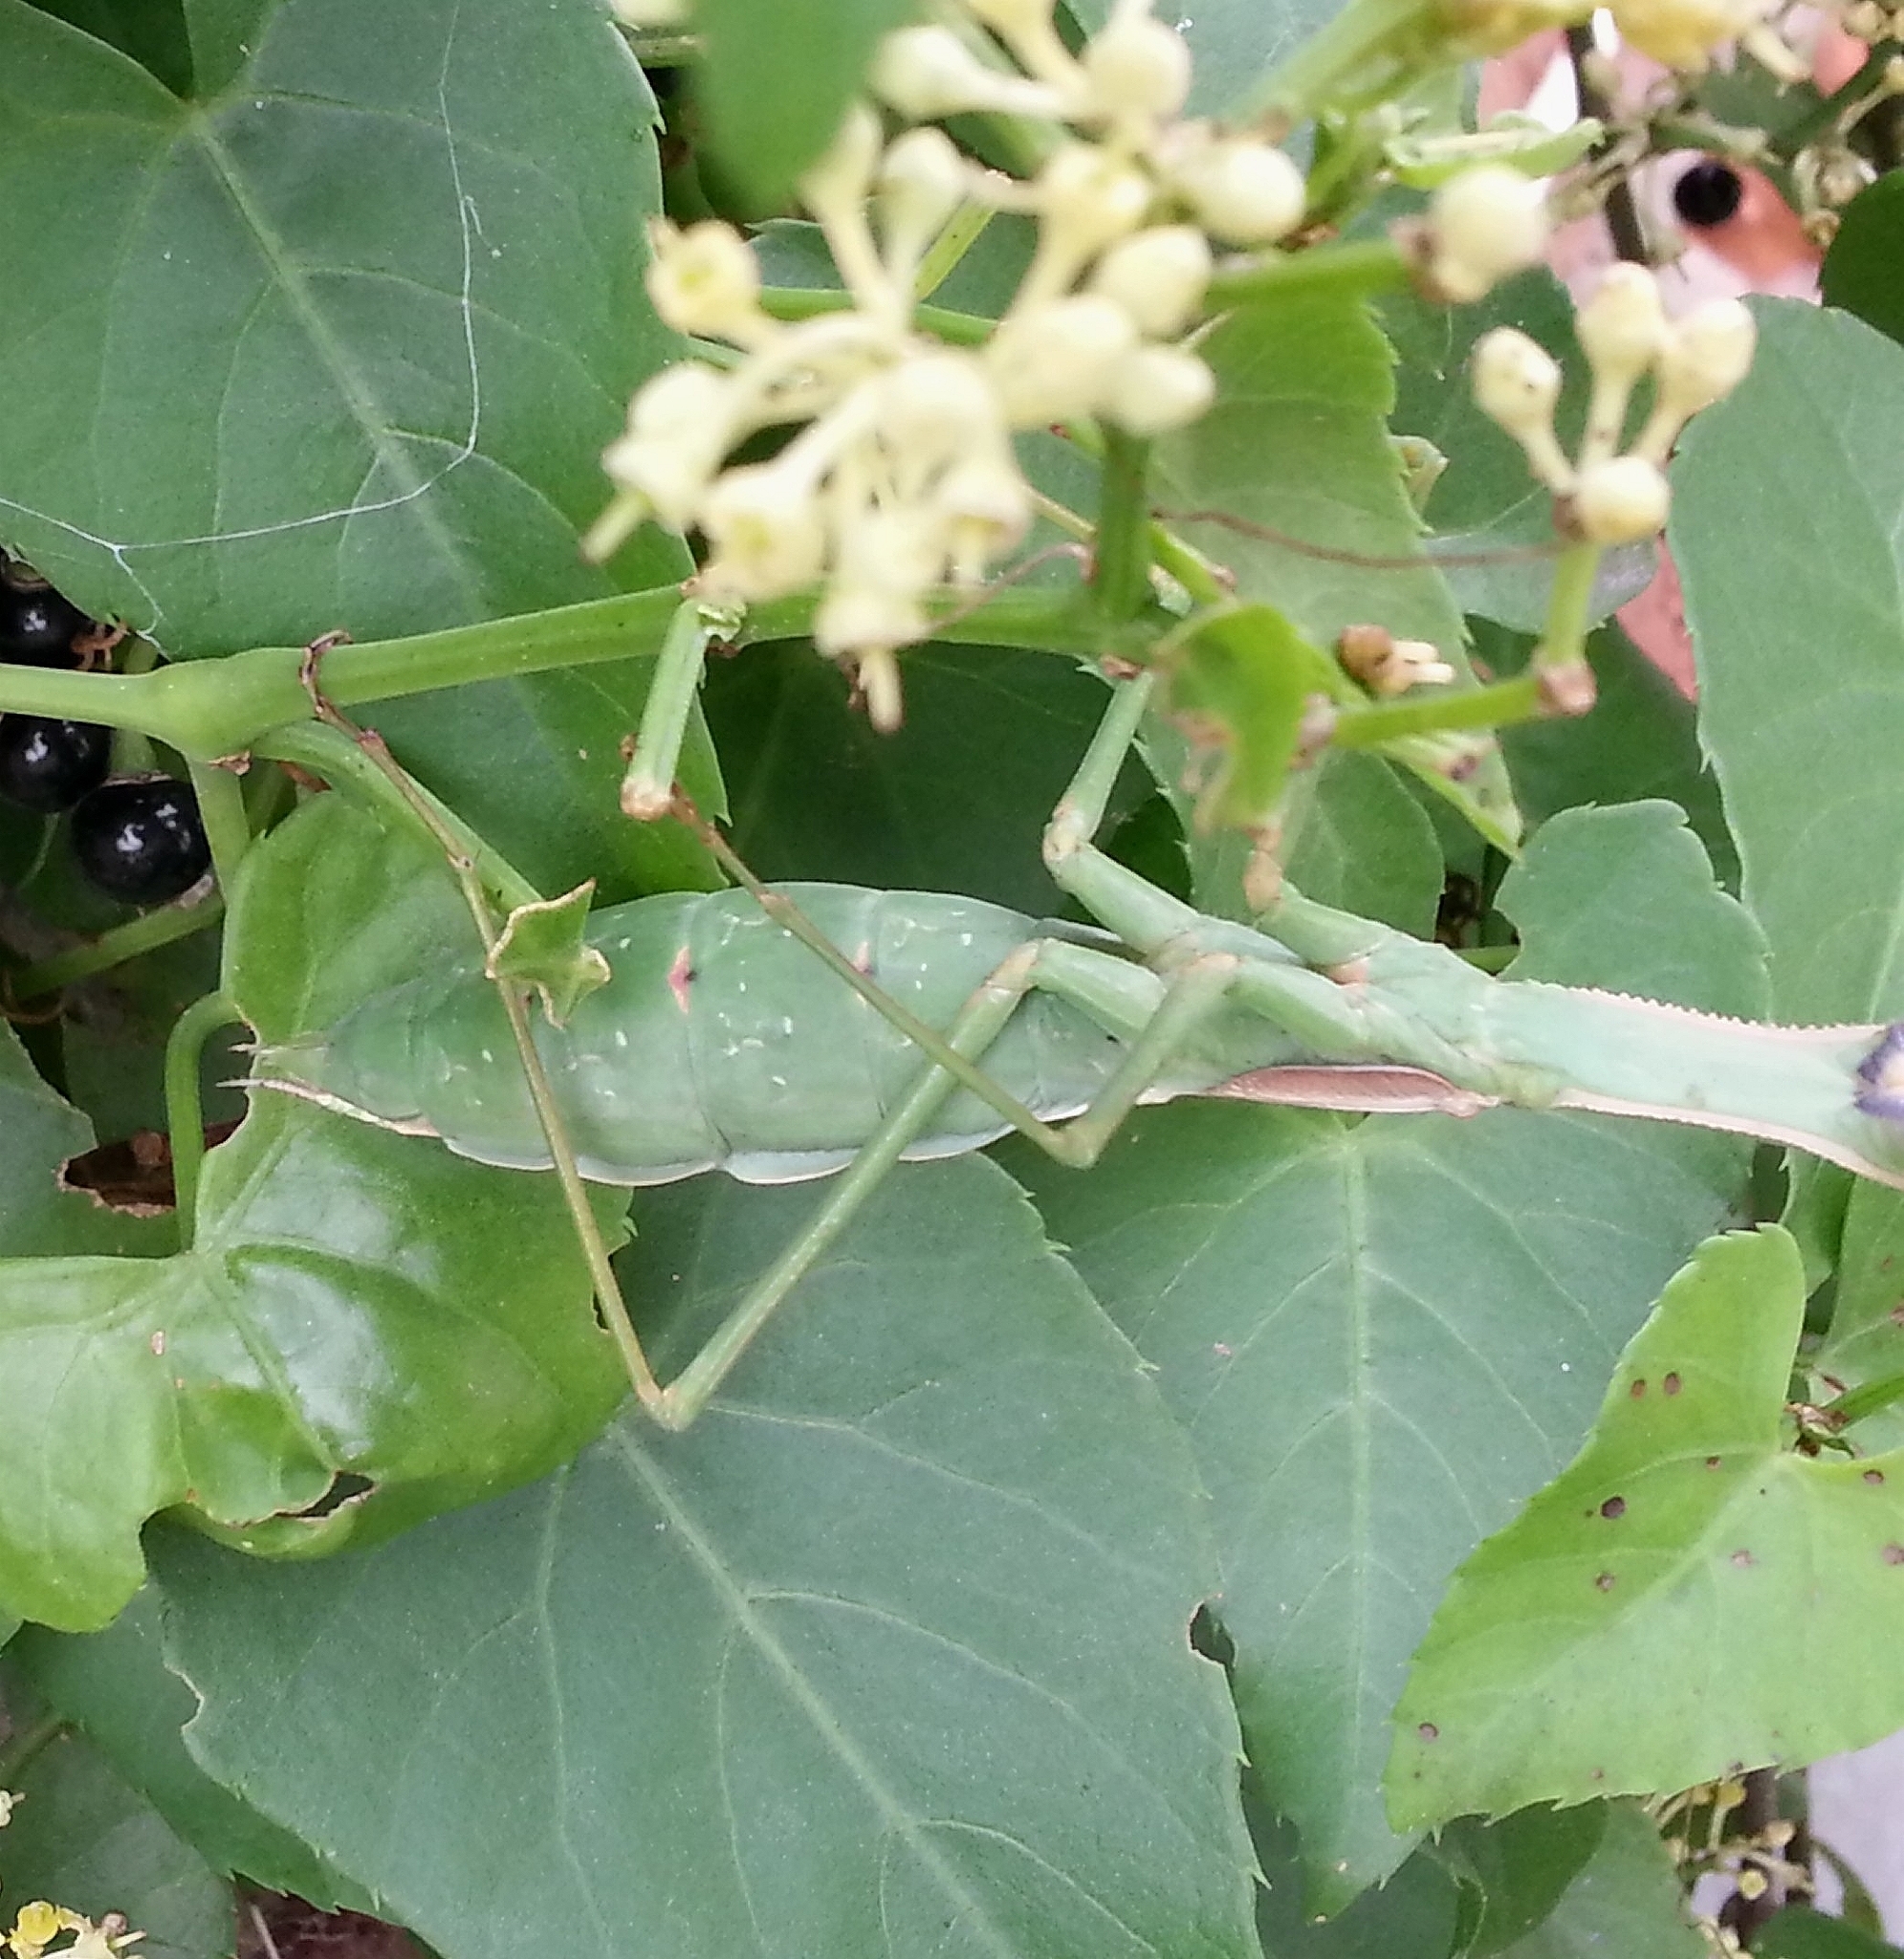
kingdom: Animalia
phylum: Arthropoda
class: Insecta
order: Mantodea
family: Coptopterygidae
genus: Coptopteryx
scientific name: Coptopteryx argentina
